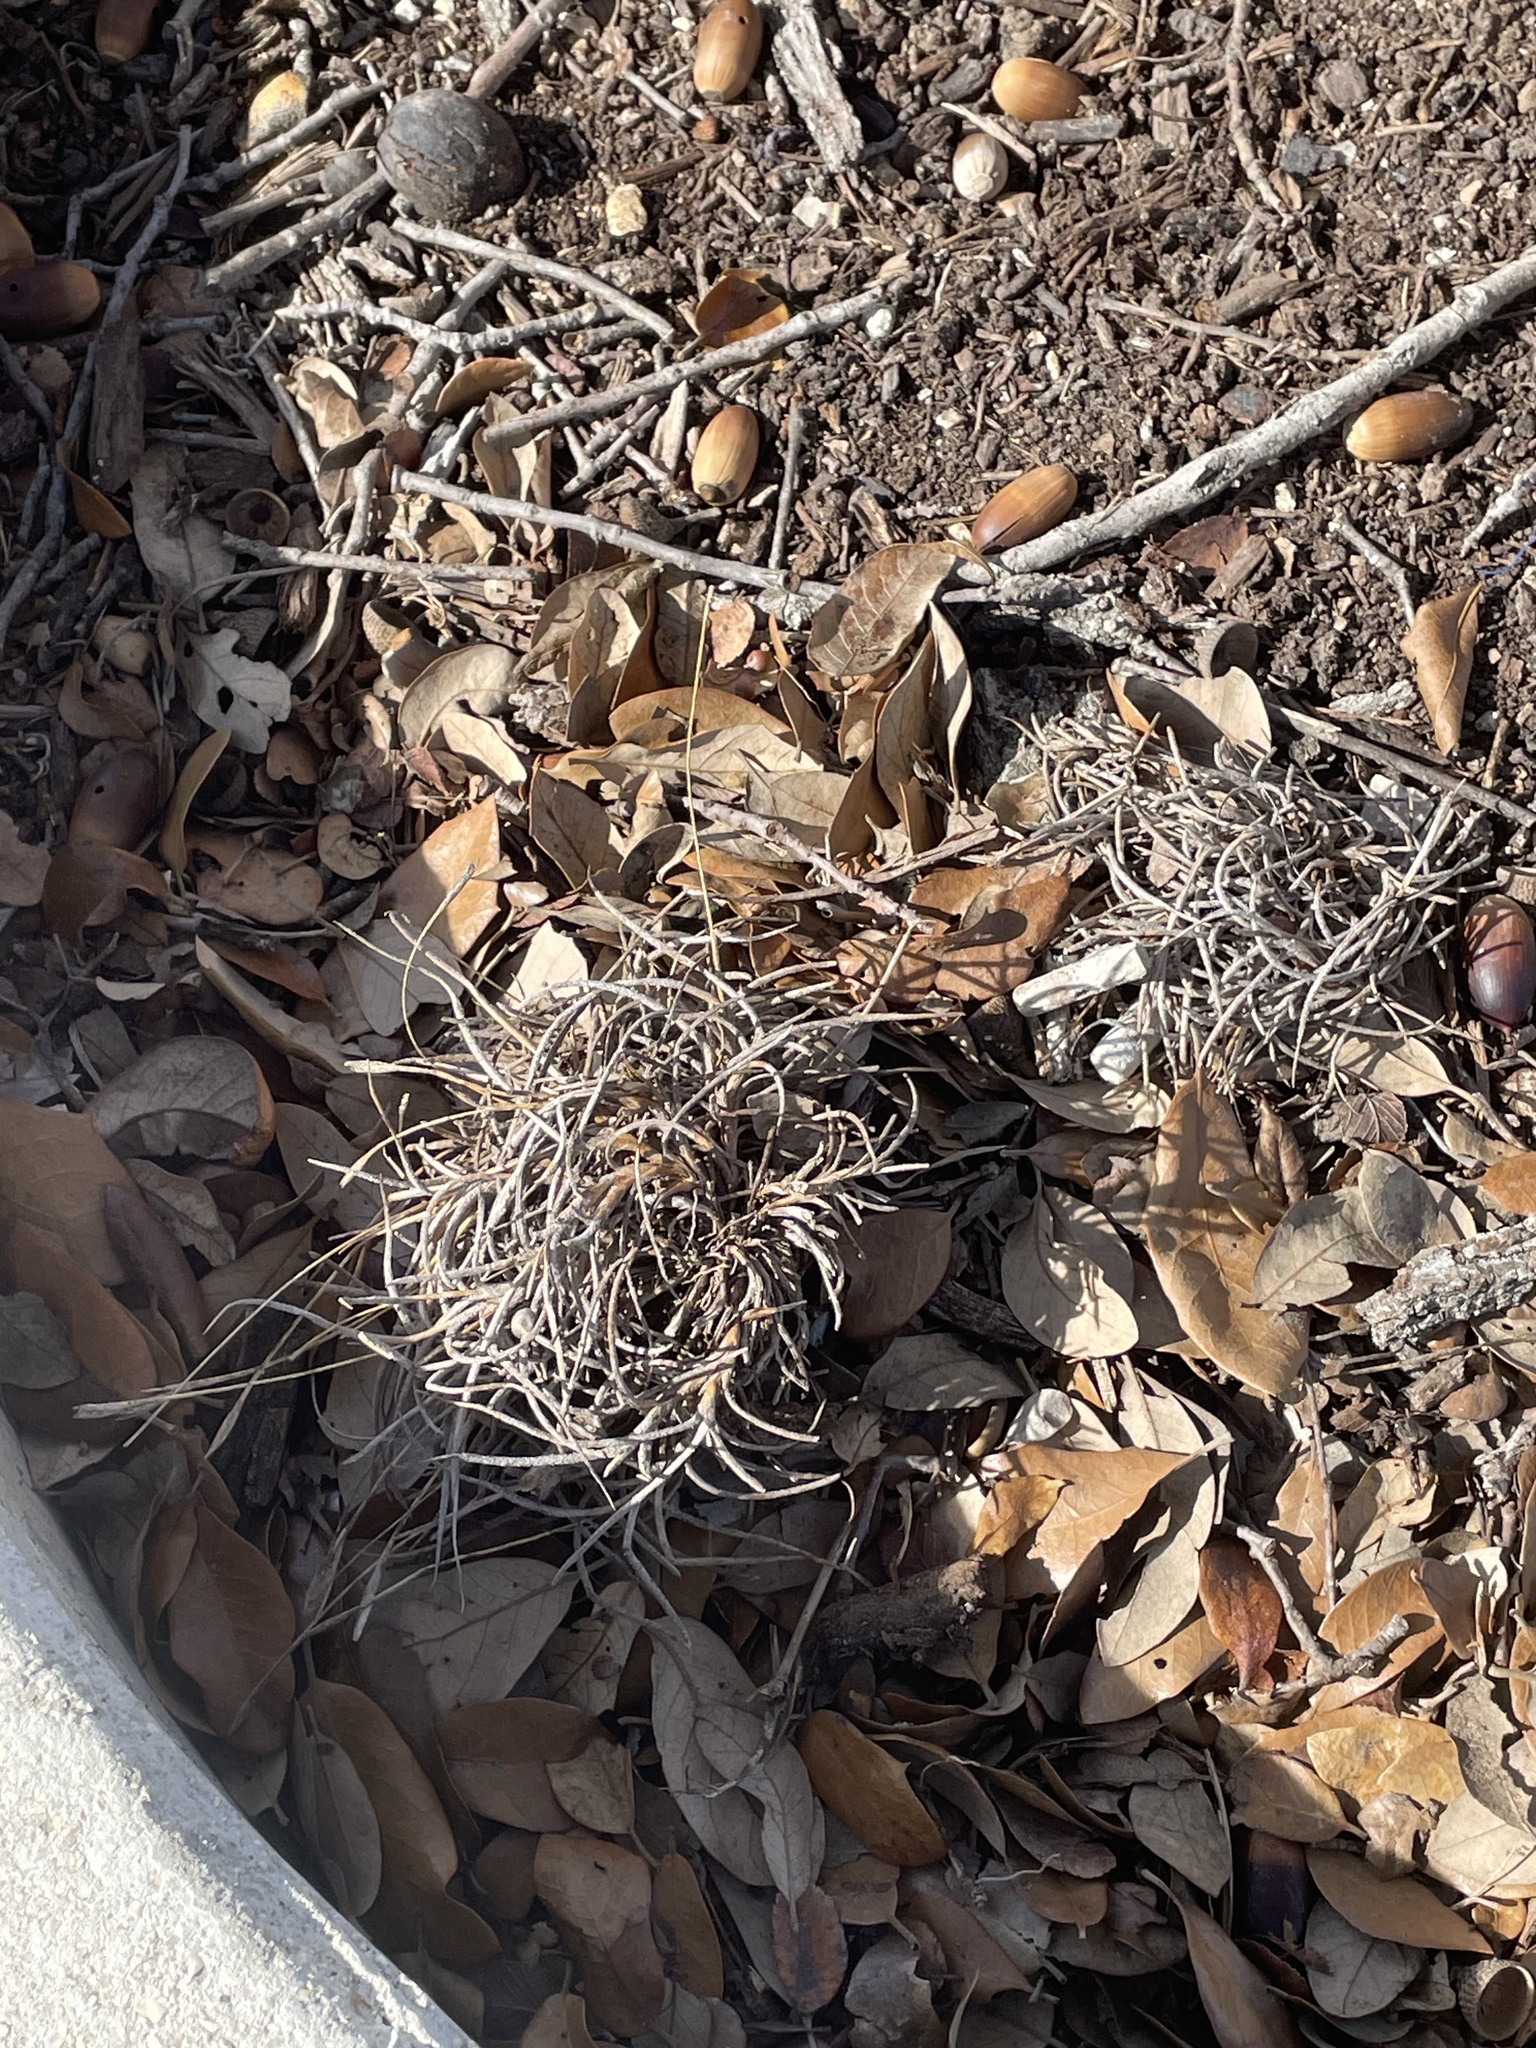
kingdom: Plantae
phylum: Tracheophyta
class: Liliopsida
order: Poales
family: Bromeliaceae
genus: Tillandsia
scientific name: Tillandsia recurvata
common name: Small ballmoss
